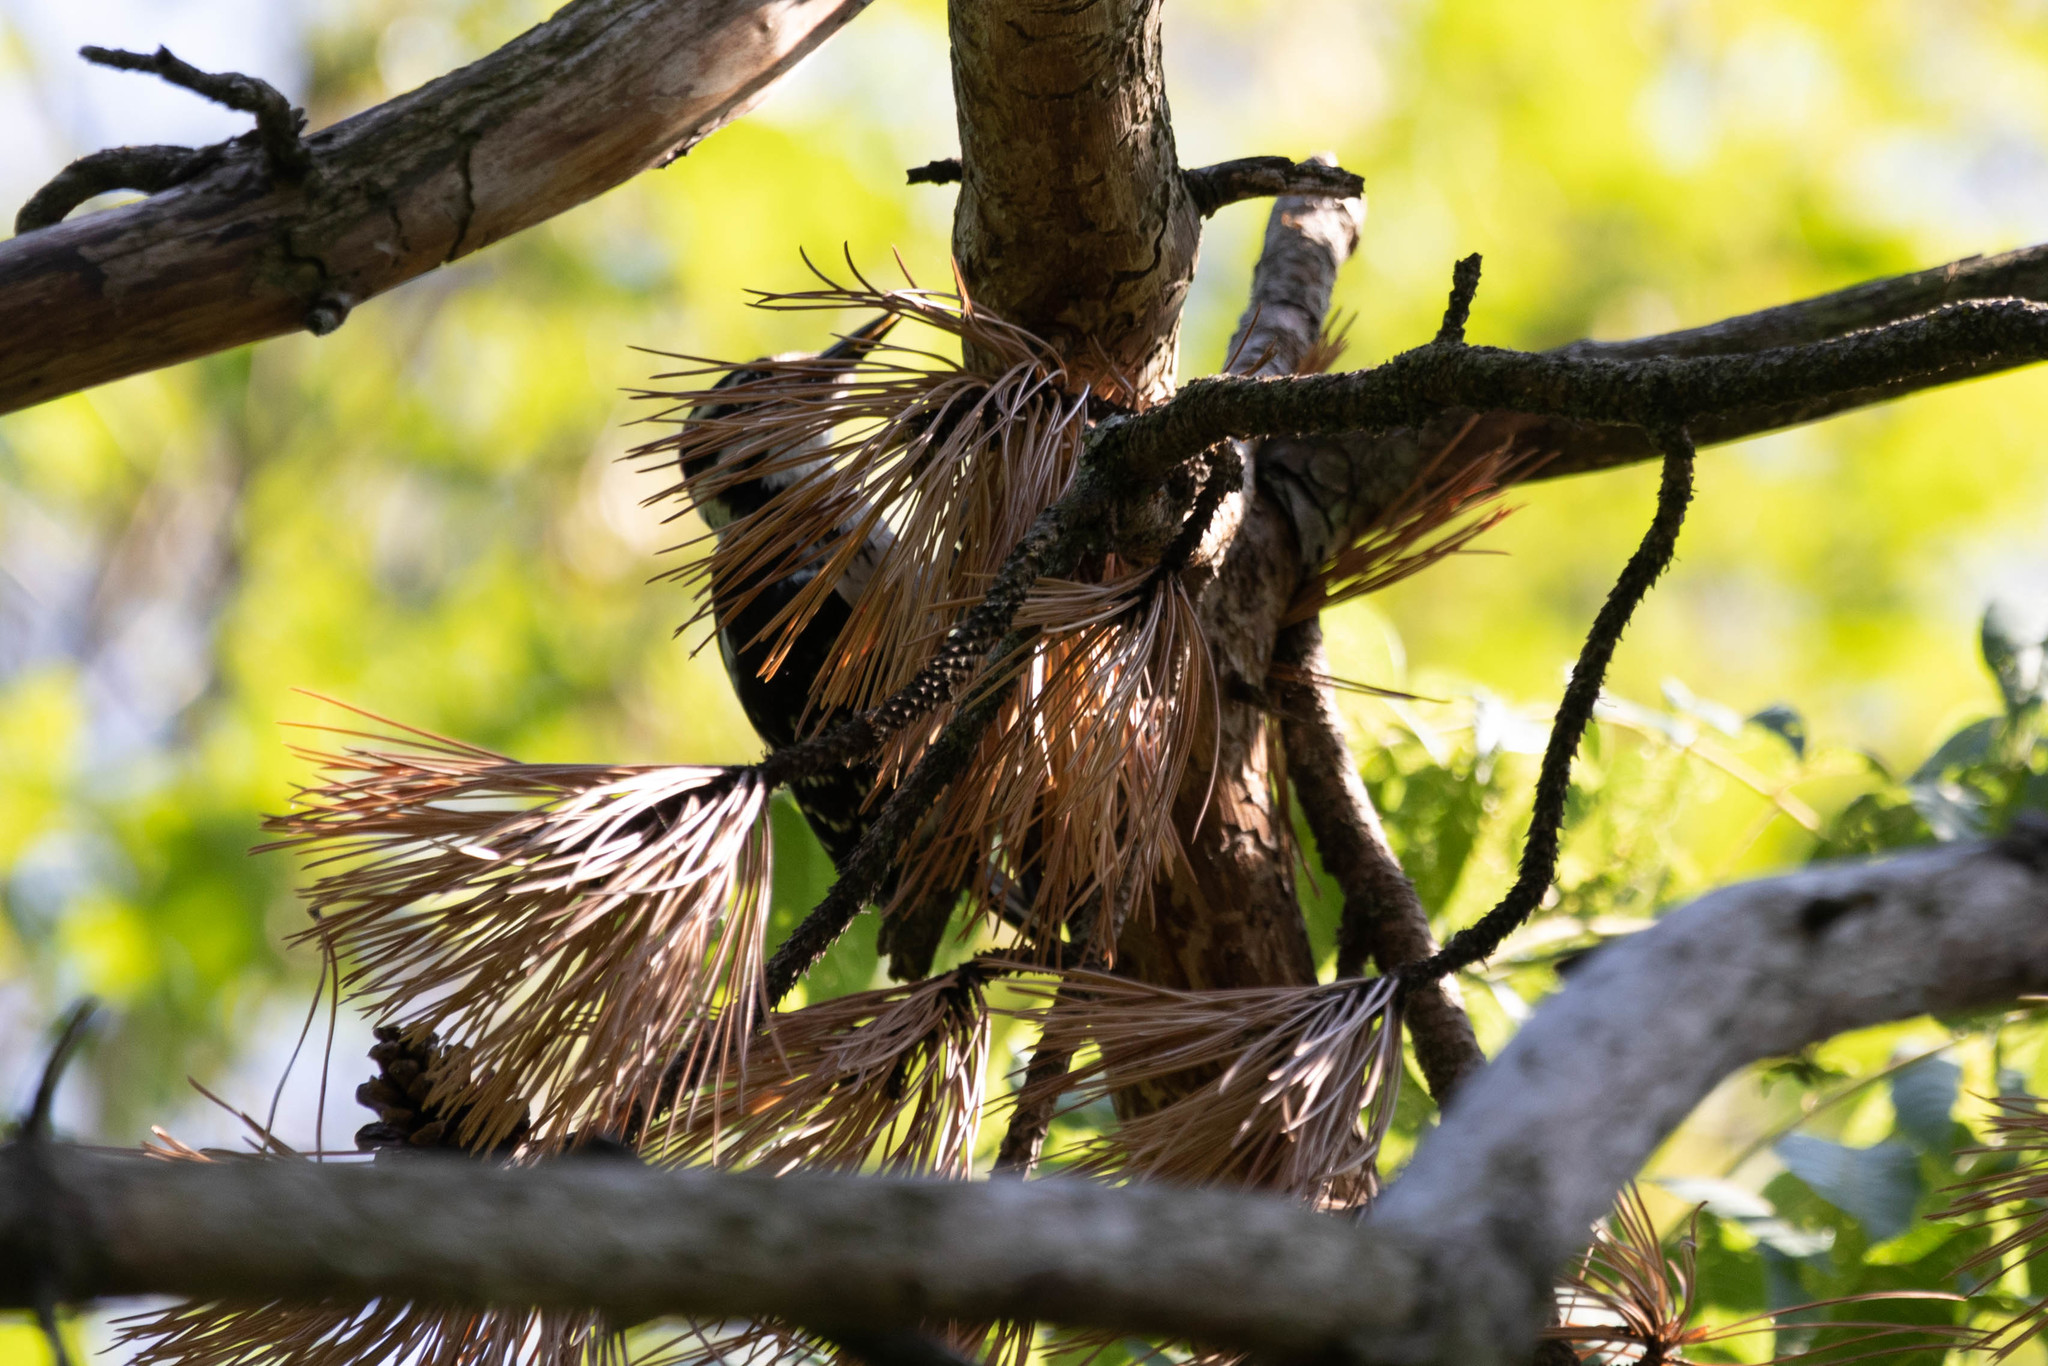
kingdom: Animalia
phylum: Chordata
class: Aves
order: Piciformes
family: Picidae
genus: Leuconotopicus
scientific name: Leuconotopicus villosus
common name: Hairy woodpecker
